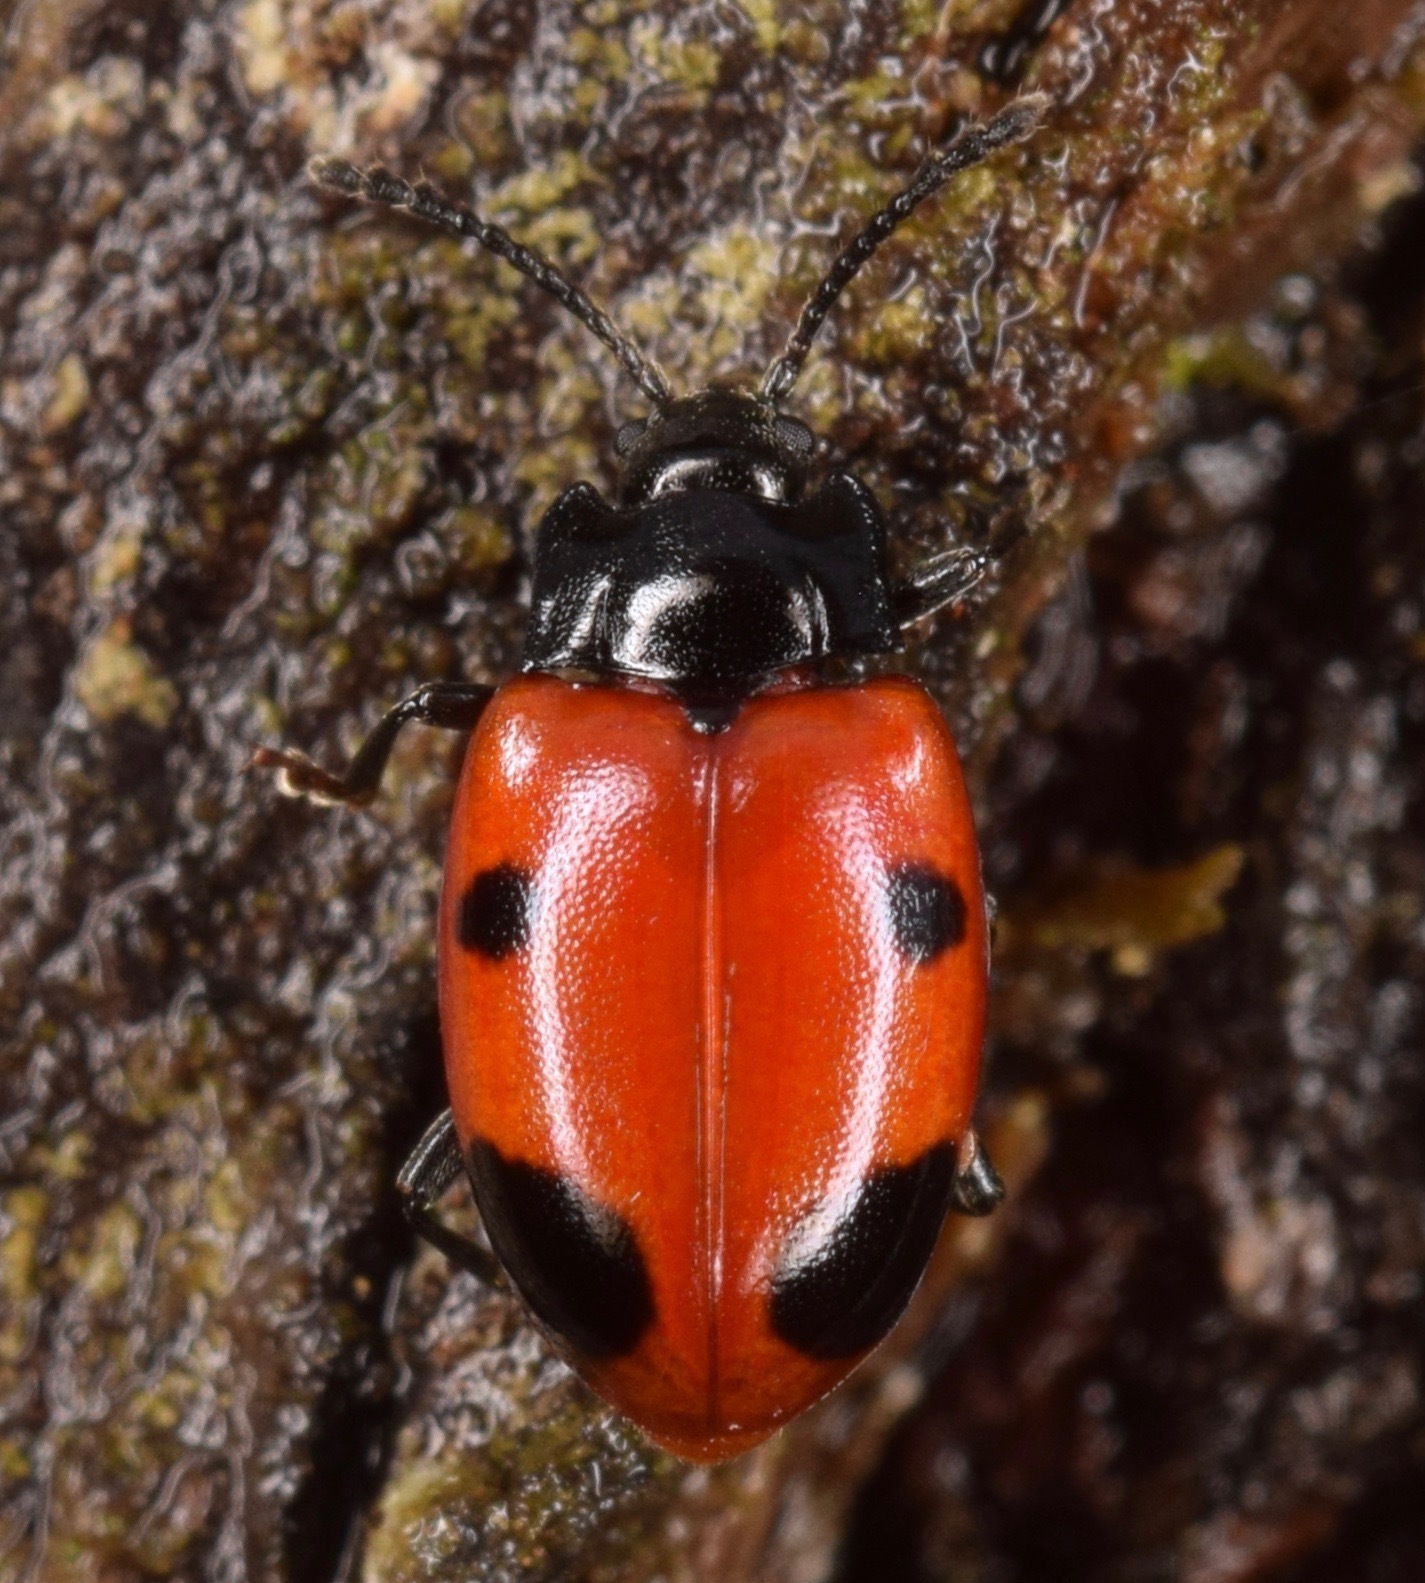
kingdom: Animalia
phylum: Arthropoda
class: Insecta
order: Coleoptera
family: Endomychidae
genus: Endomychus
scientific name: Endomychus biguttatus
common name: Handsome fungus beetle
